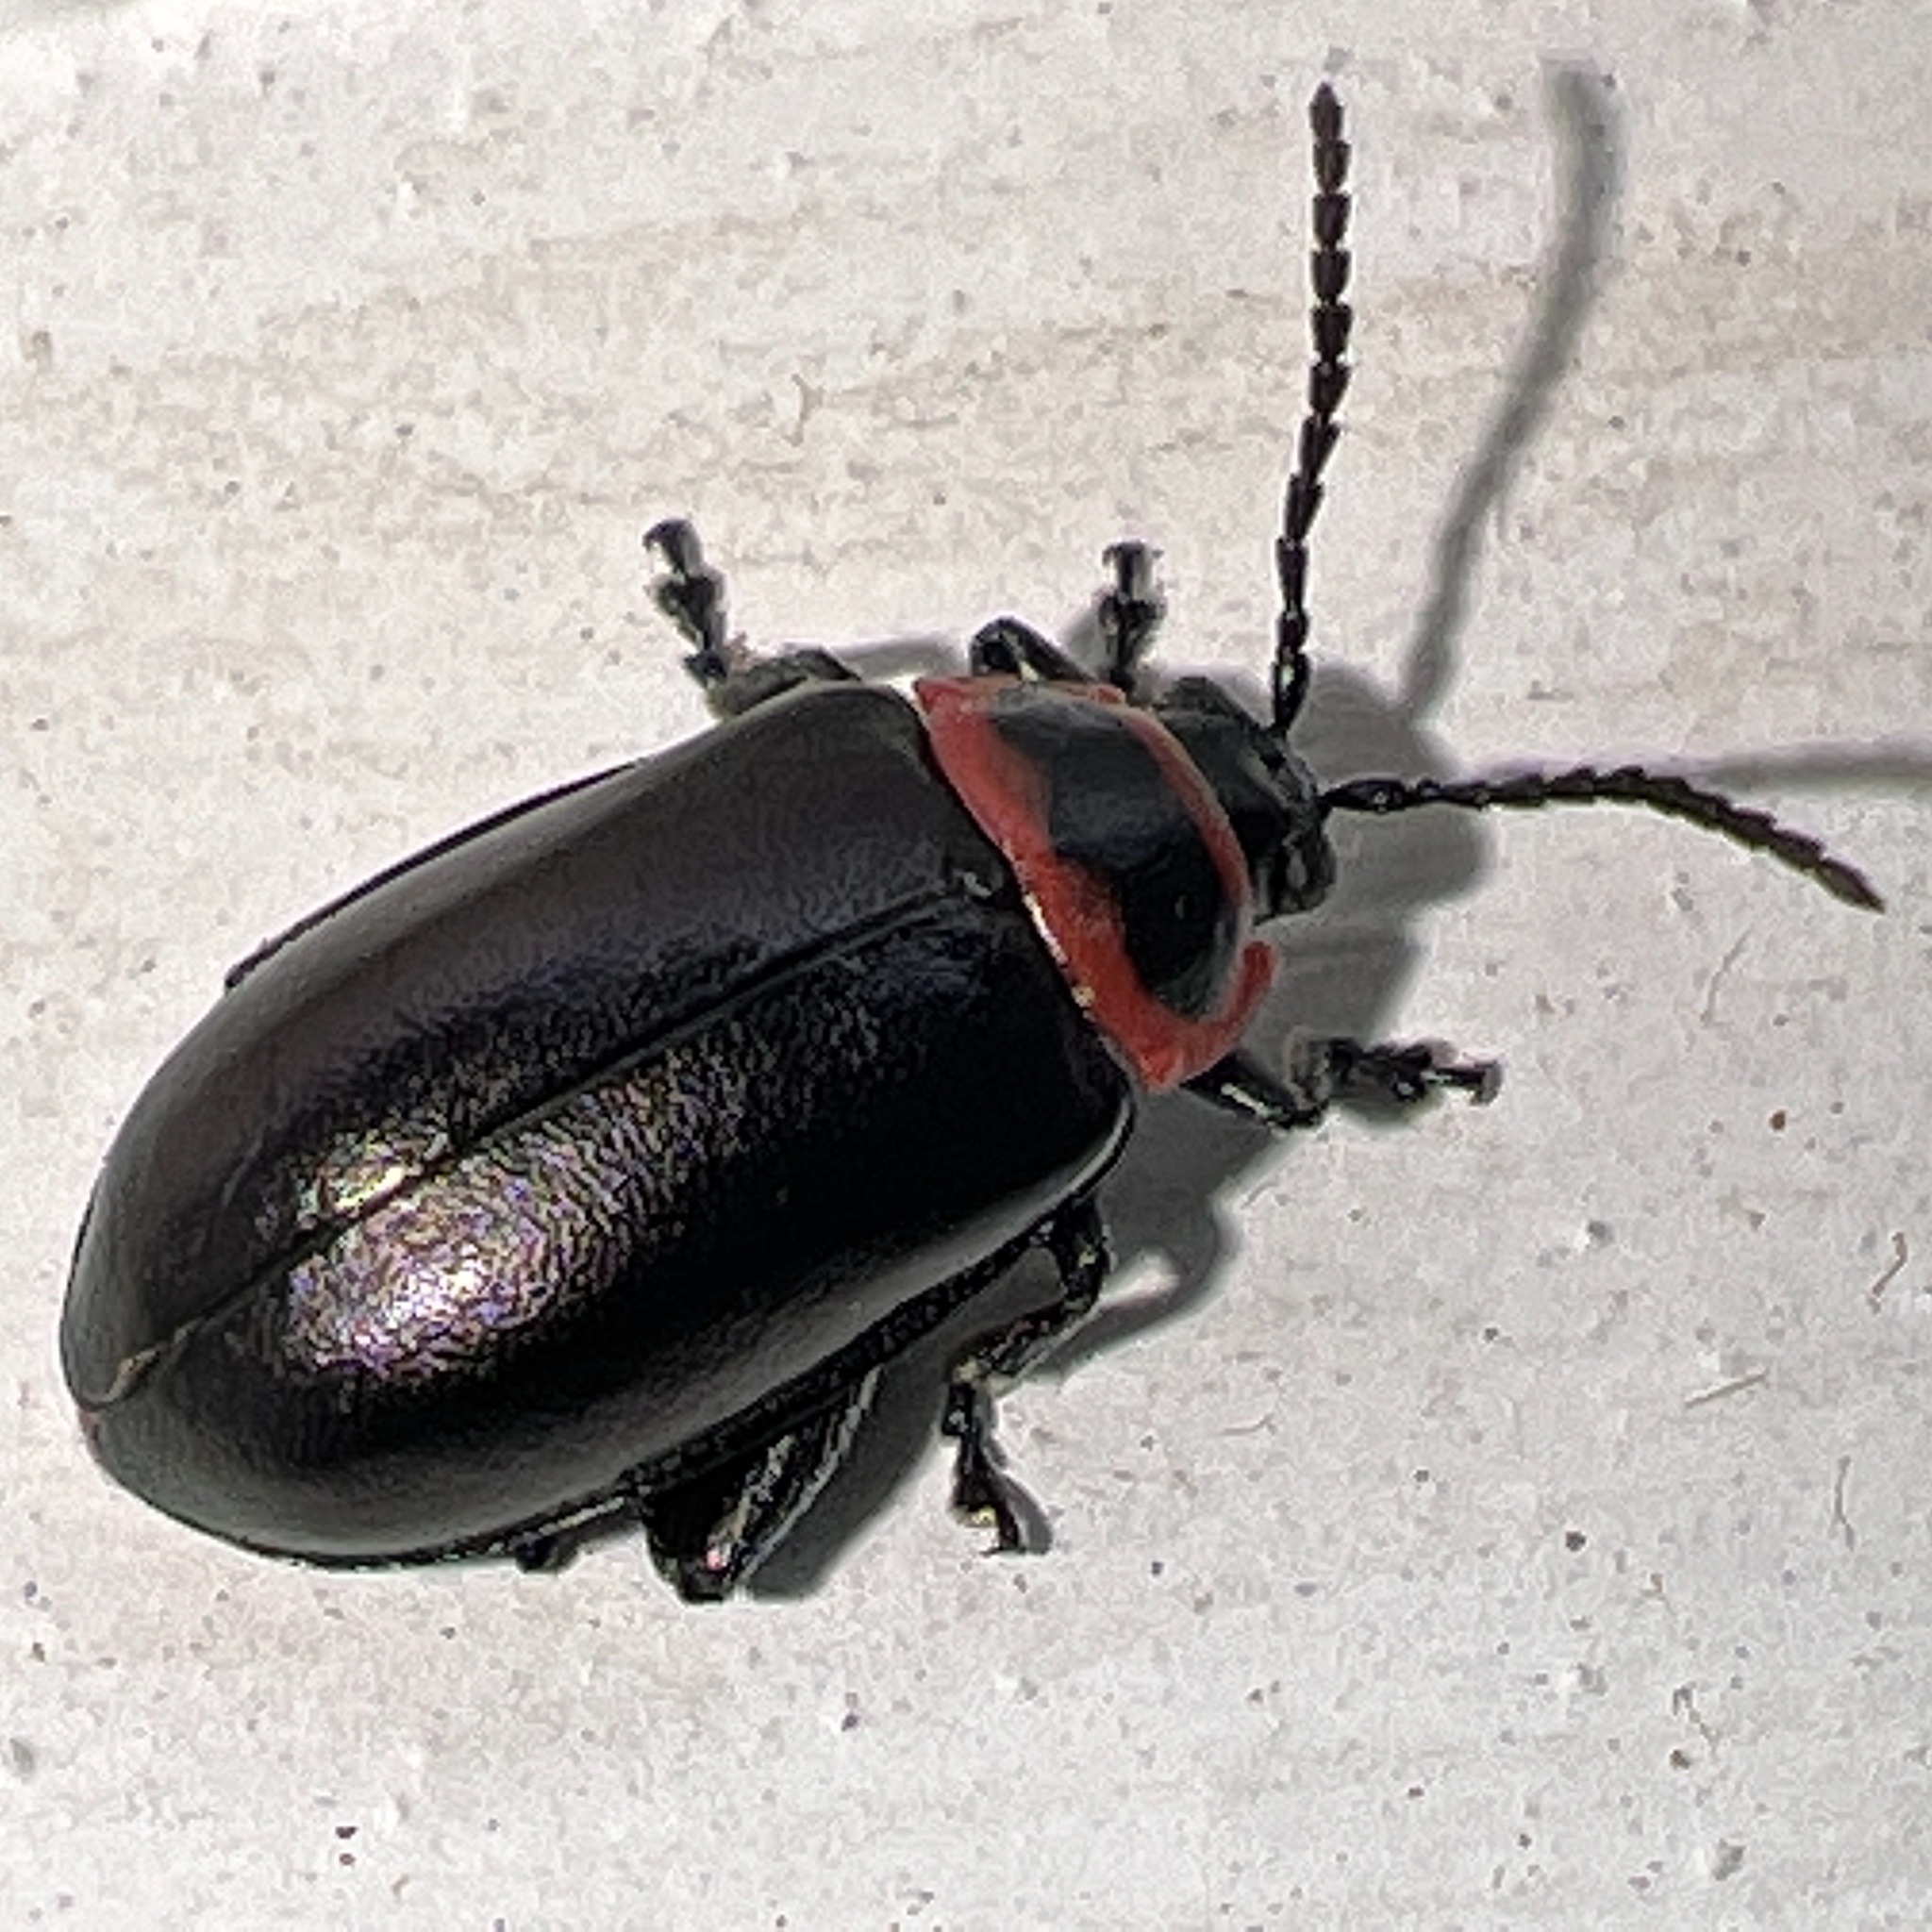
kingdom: Animalia
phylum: Arthropoda
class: Insecta
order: Coleoptera
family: Chrysomelidae
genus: Kuschelina
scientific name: Kuschelina vians
